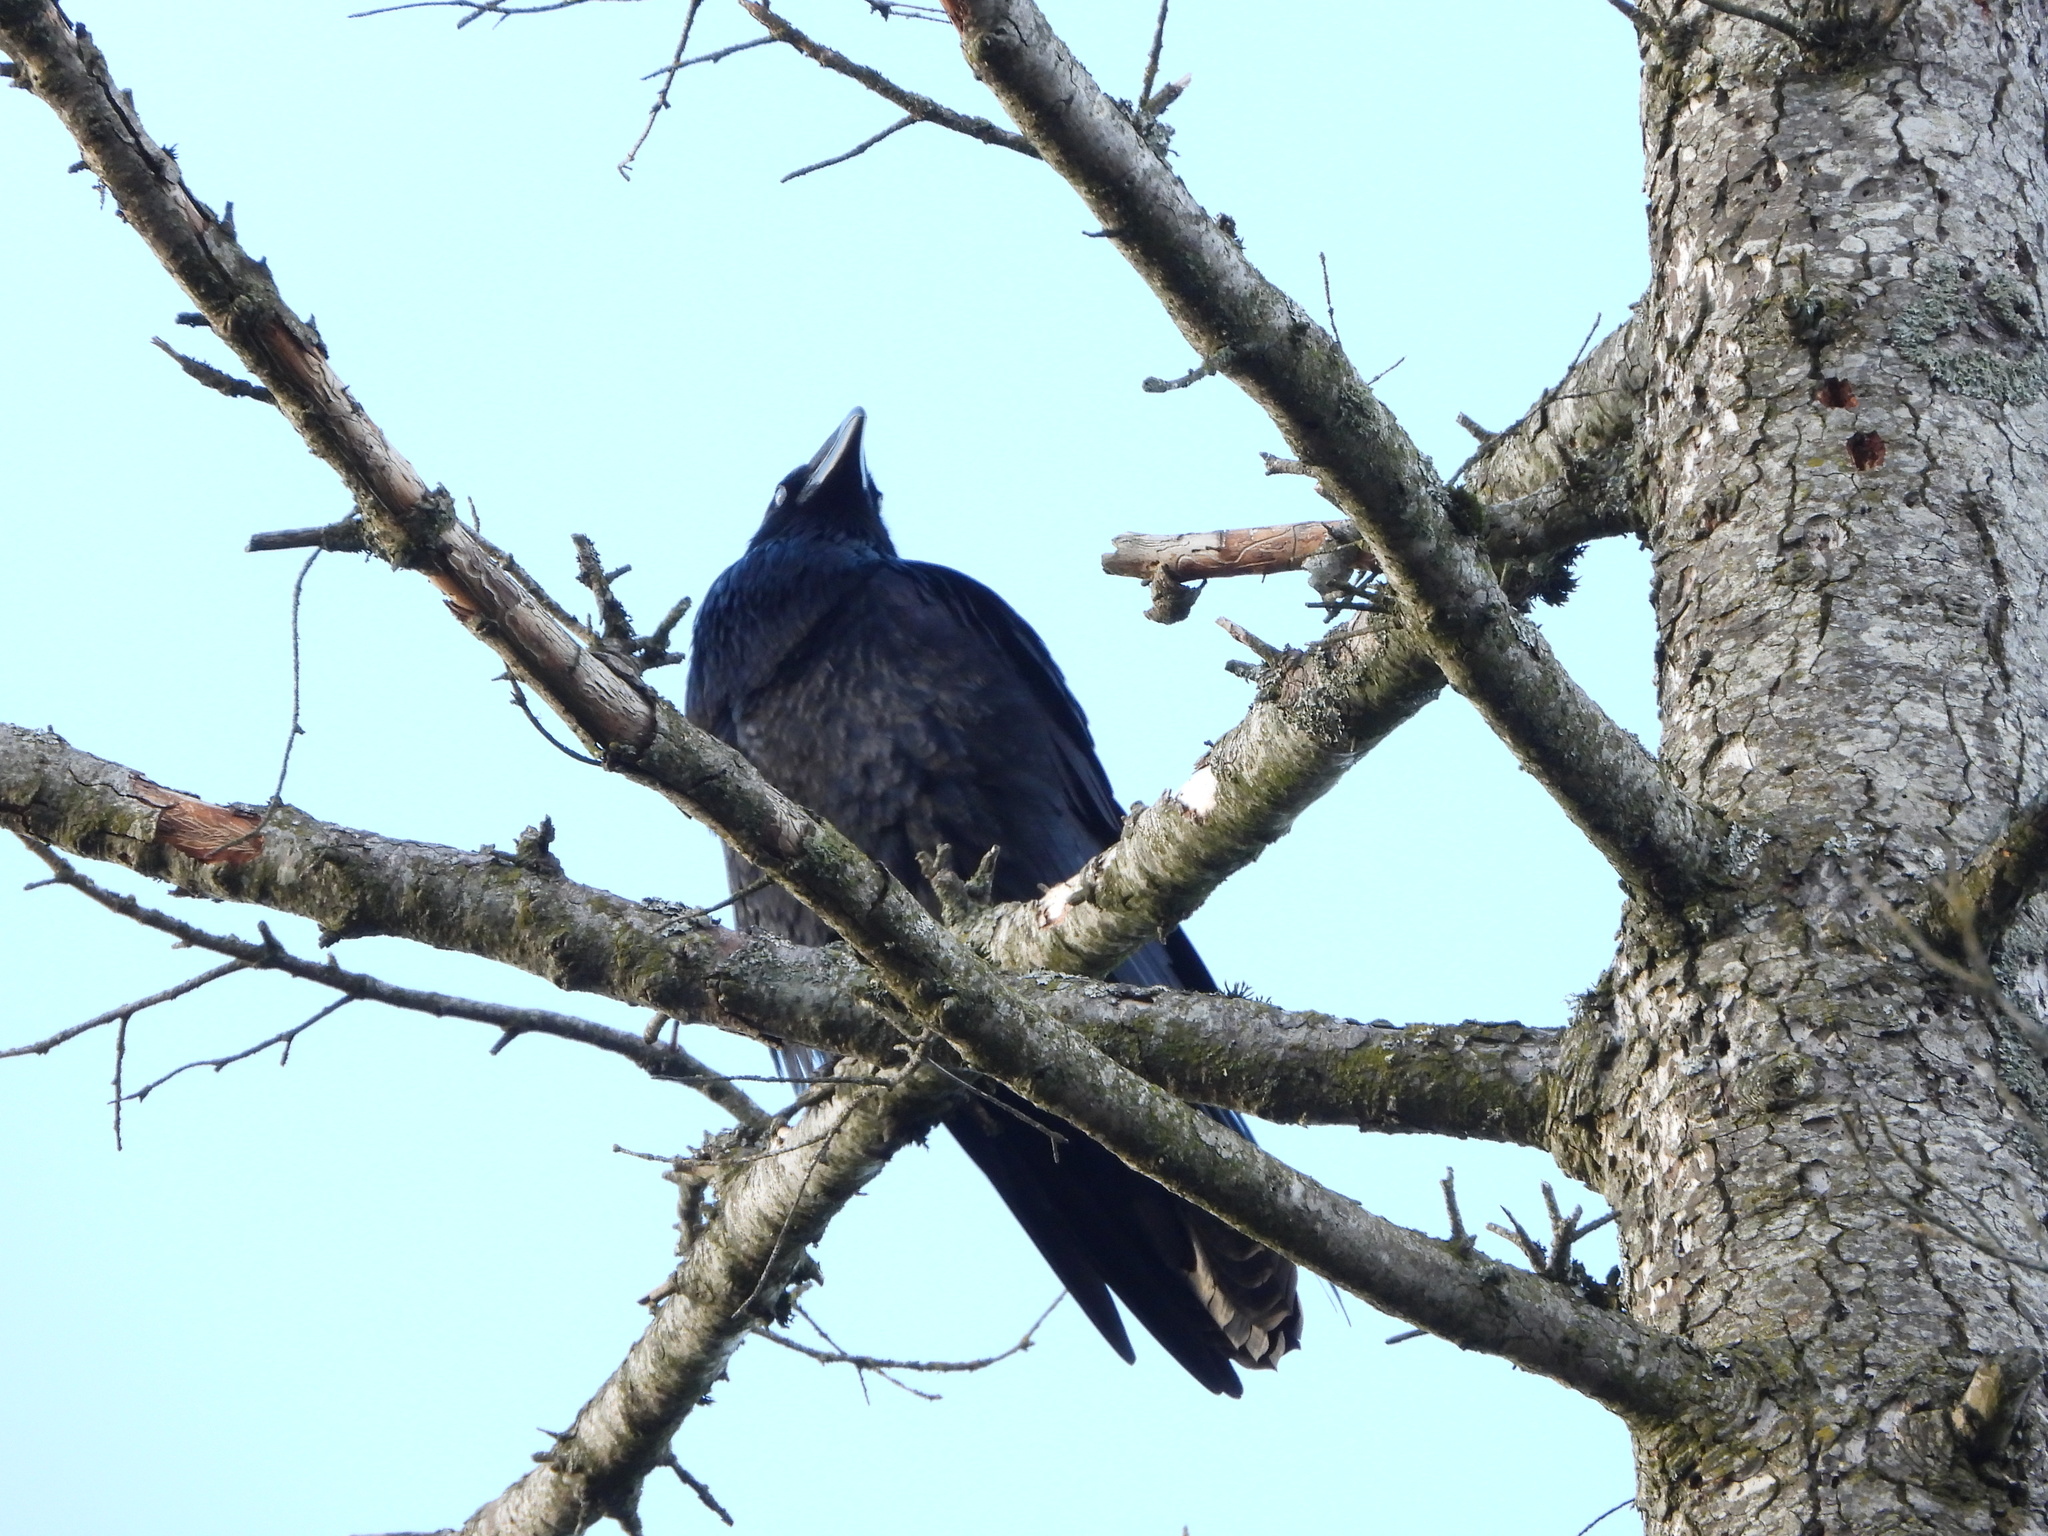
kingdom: Animalia
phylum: Chordata
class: Aves
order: Passeriformes
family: Corvidae
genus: Corvus
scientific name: Corvus corax
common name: Common raven
